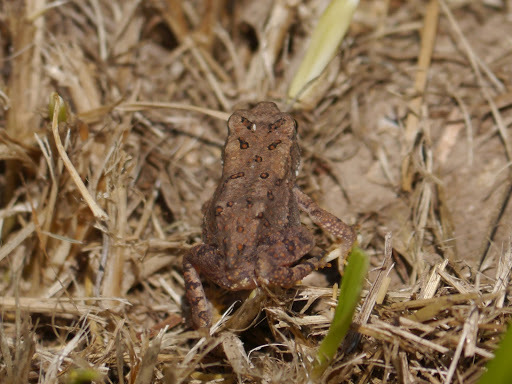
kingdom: Animalia
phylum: Chordata
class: Amphibia
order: Anura
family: Bufonidae
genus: Anaxyrus
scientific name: Anaxyrus americanus
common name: American toad
